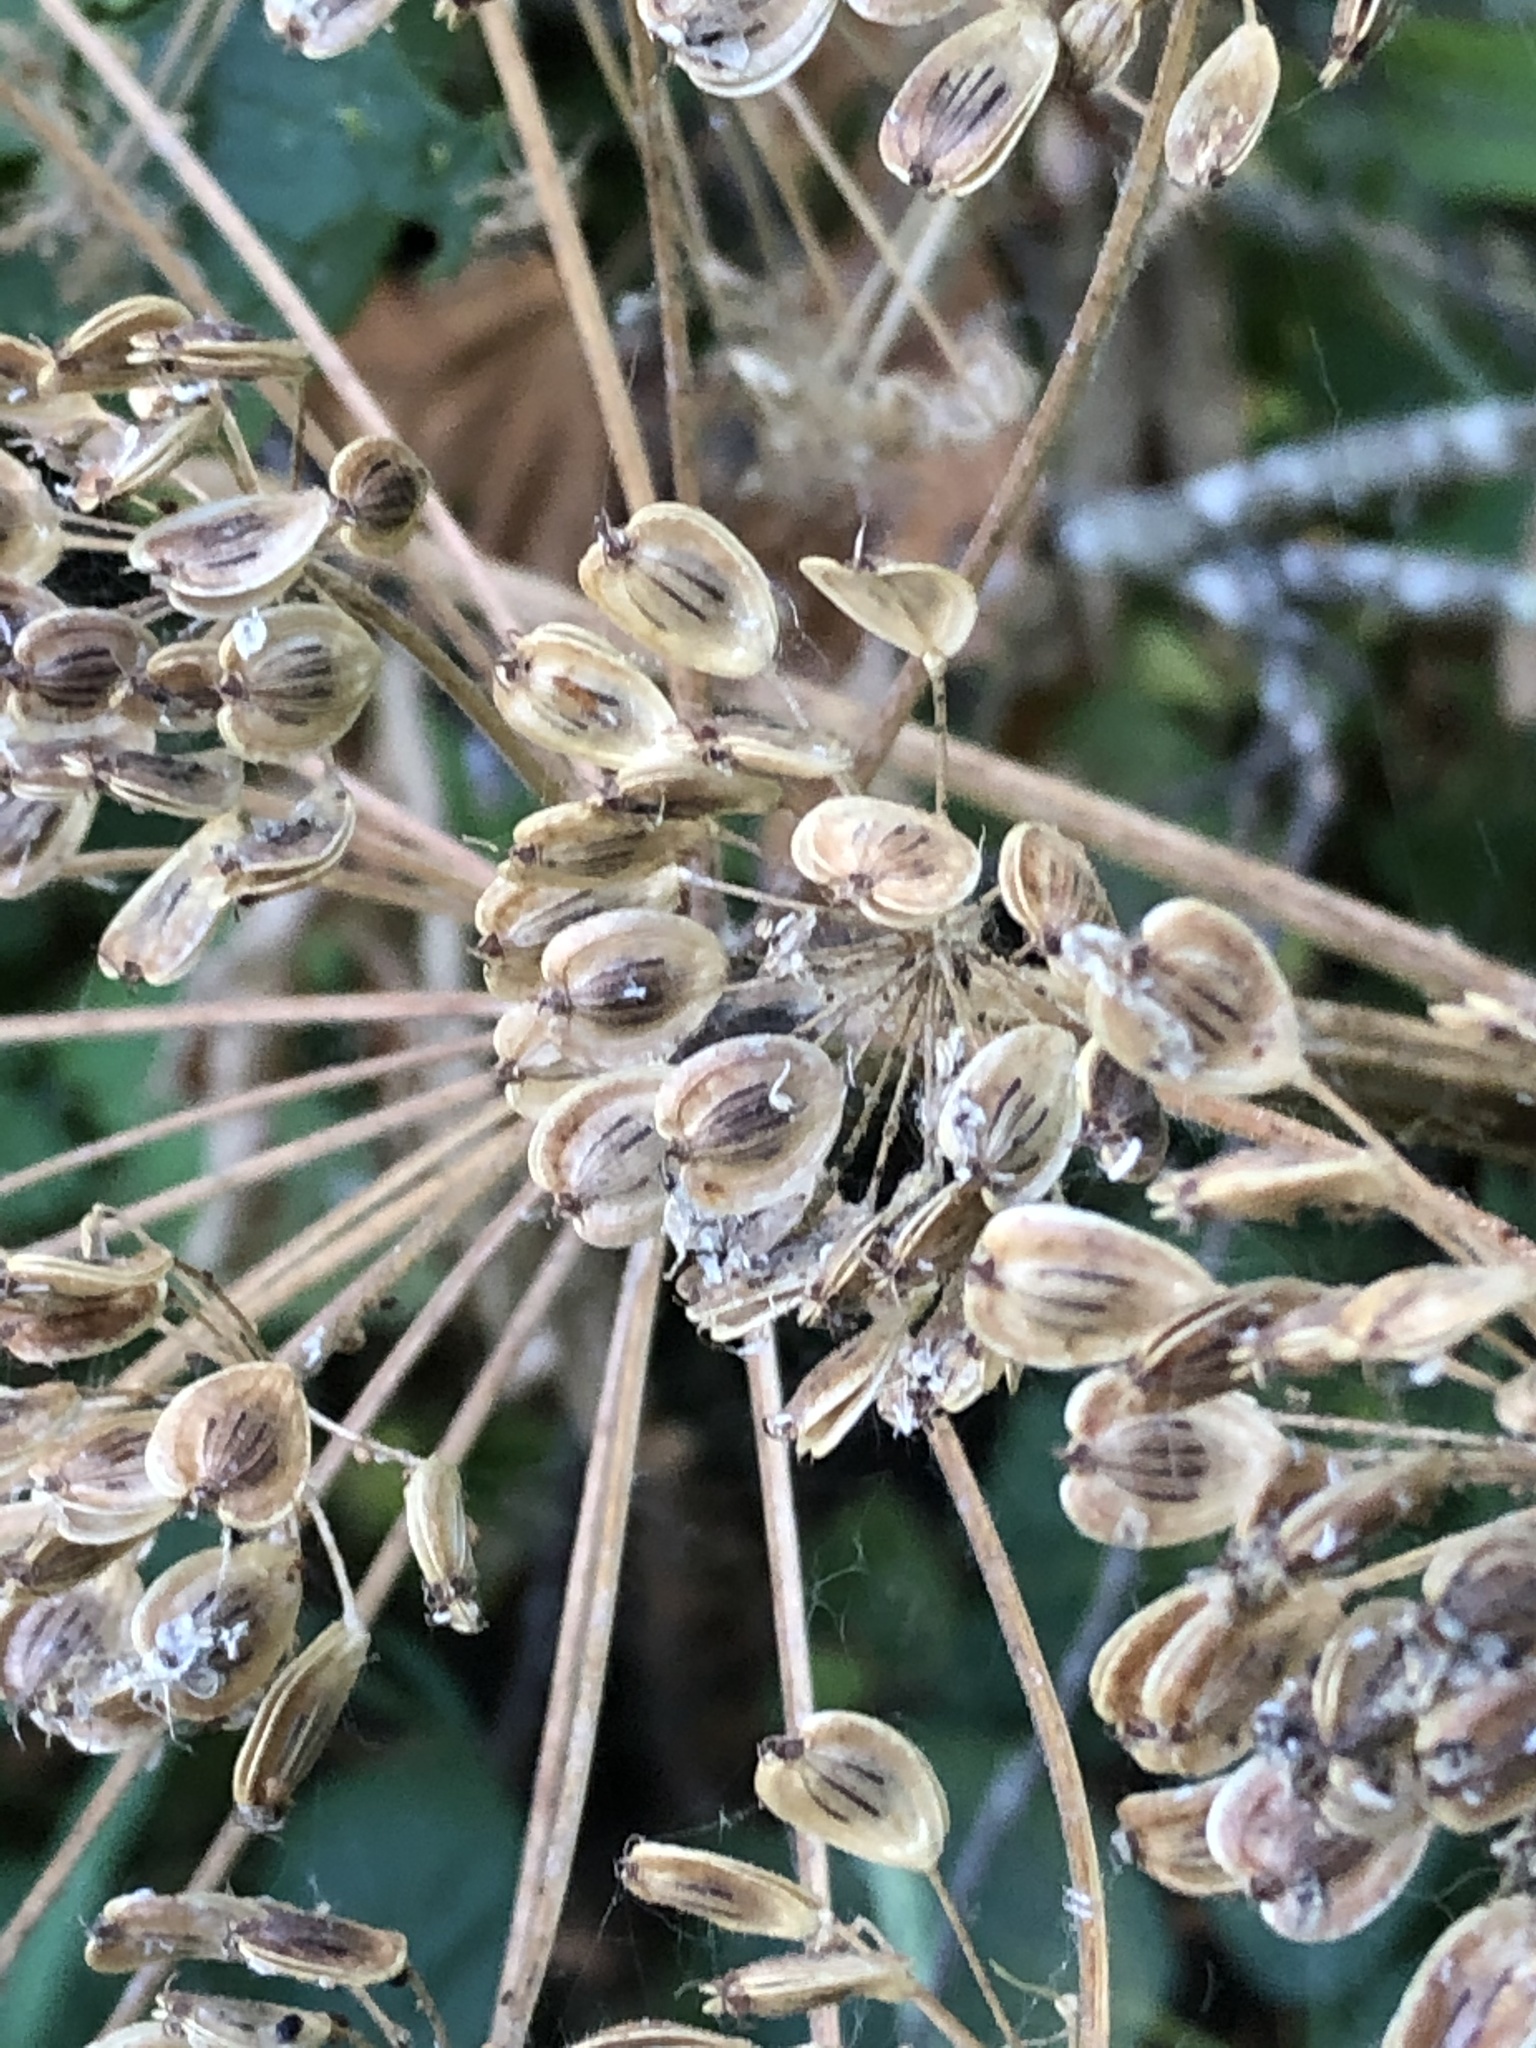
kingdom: Plantae
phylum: Tracheophyta
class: Magnoliopsida
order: Apiales
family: Apiaceae
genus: Heracleum
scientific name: Heracleum maximum
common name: American cow parsnip
